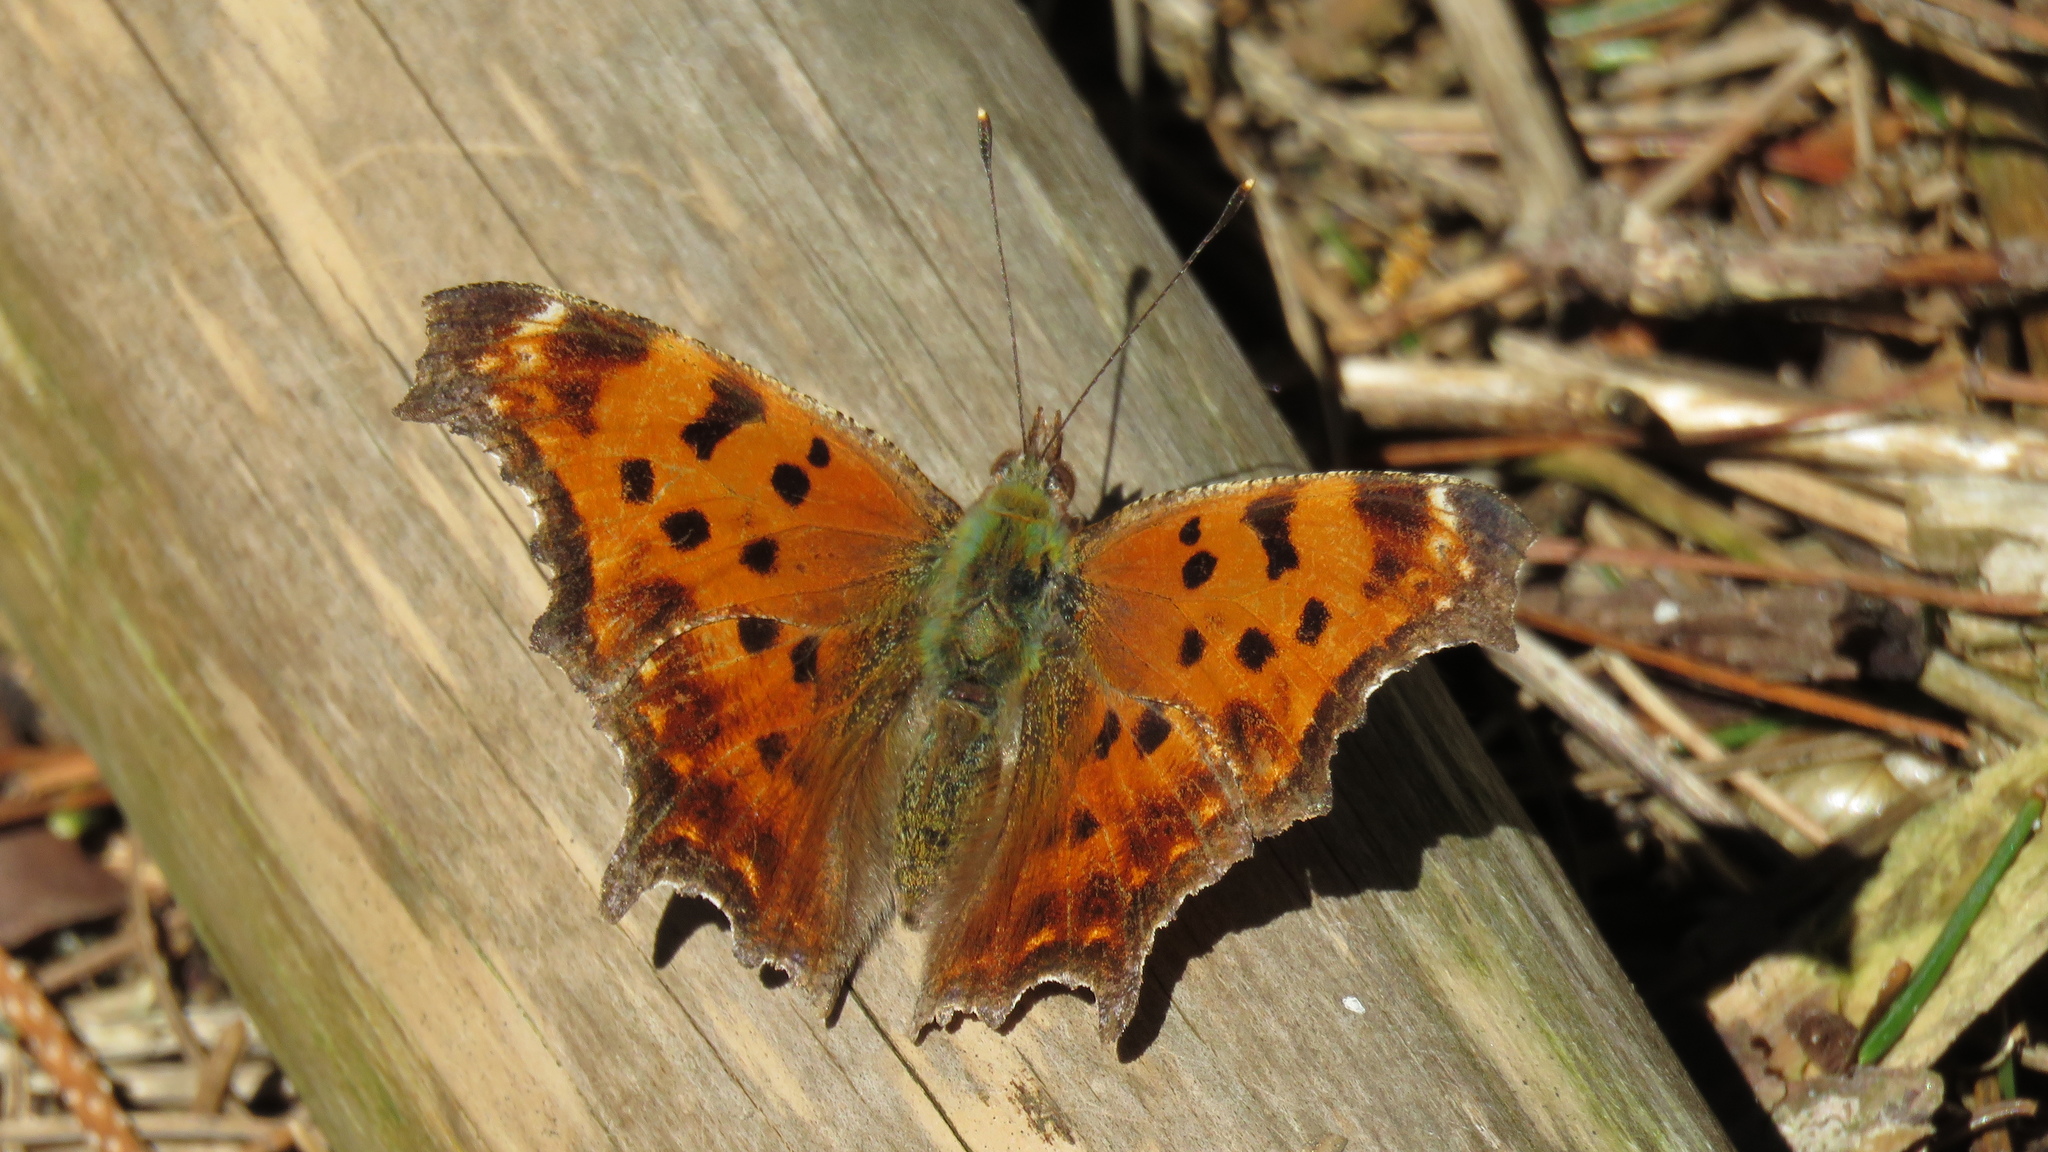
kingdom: Animalia
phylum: Arthropoda
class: Insecta
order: Lepidoptera
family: Nymphalidae
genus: Polygonia
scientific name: Polygonia comma
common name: Eastern comma
